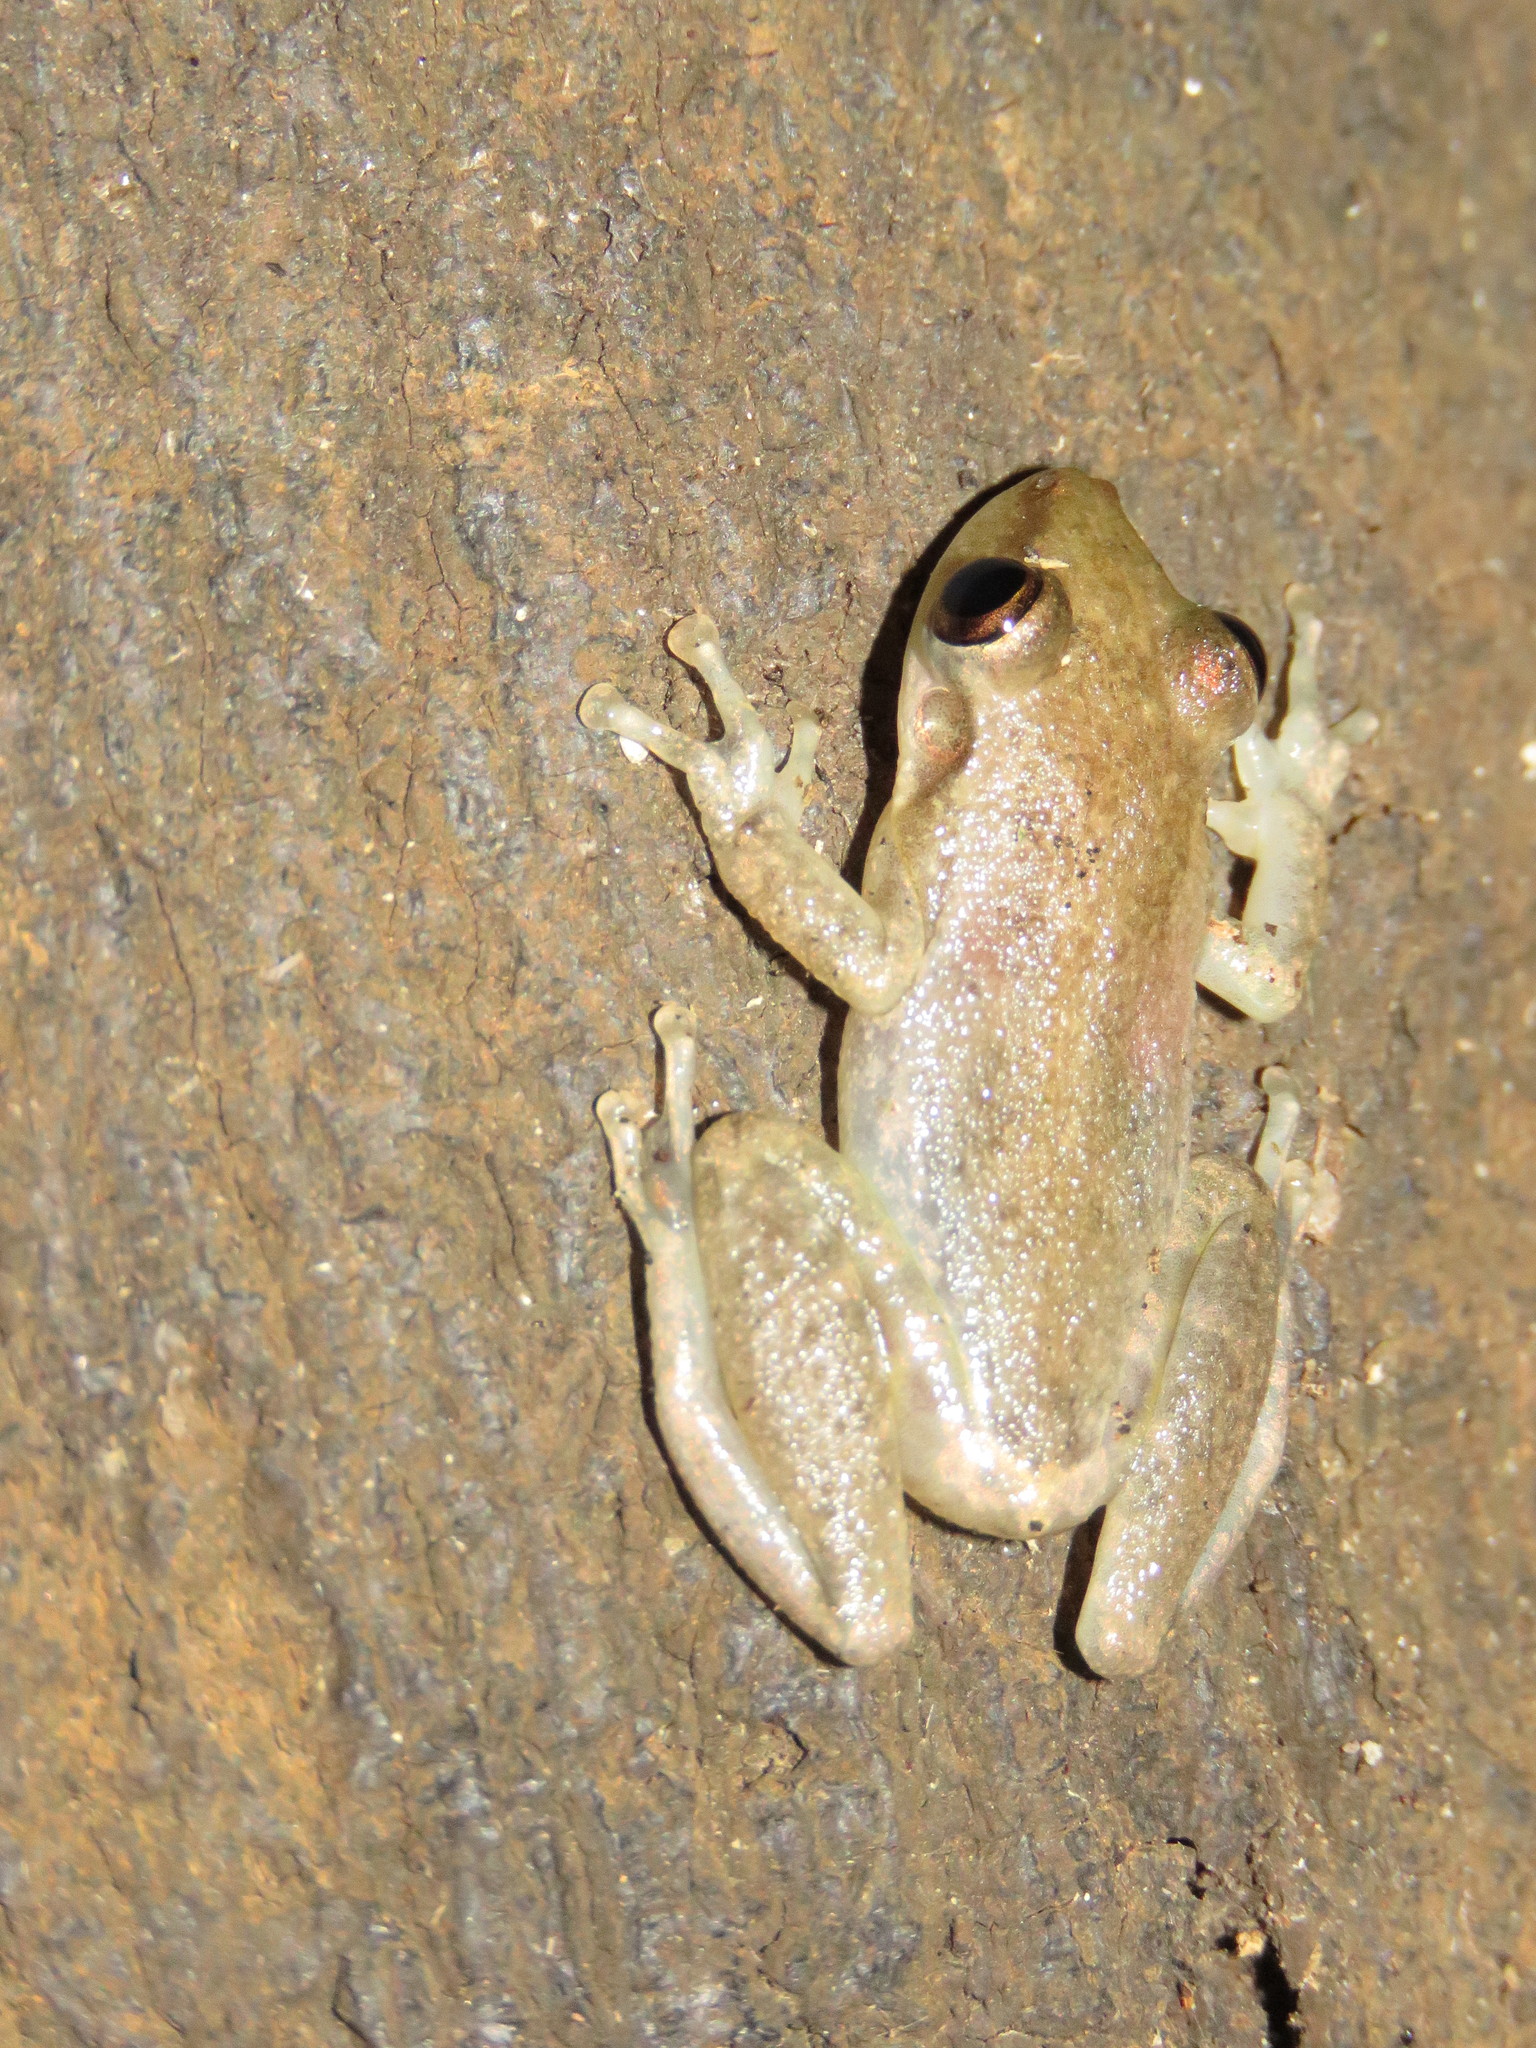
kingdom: Animalia
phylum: Chordata
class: Amphibia
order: Anura
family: Hylidae
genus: Scinax
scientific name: Scinax ruber
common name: Red snouted treefrog
